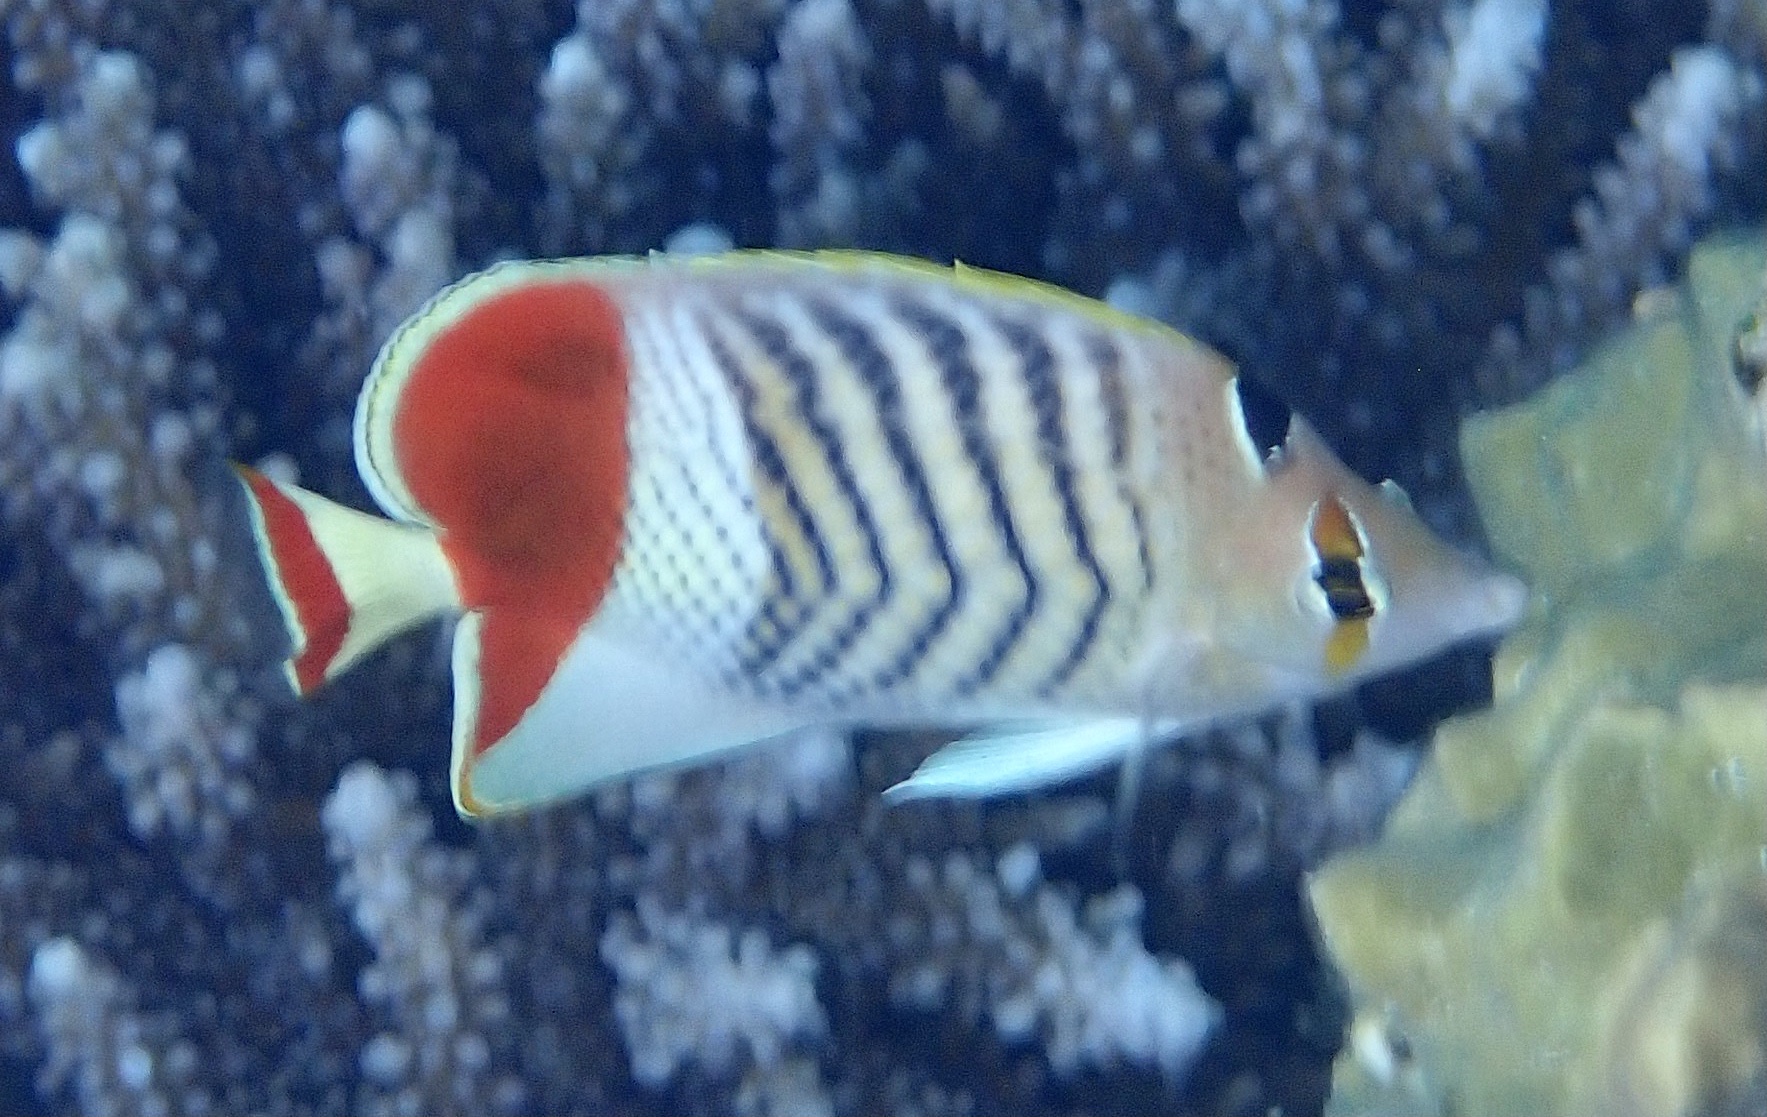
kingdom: Animalia
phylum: Chordata
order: Perciformes
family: Chaetodontidae
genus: Chaetodon
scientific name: Chaetodon paucifasciatus
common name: Crown butterflyfish
